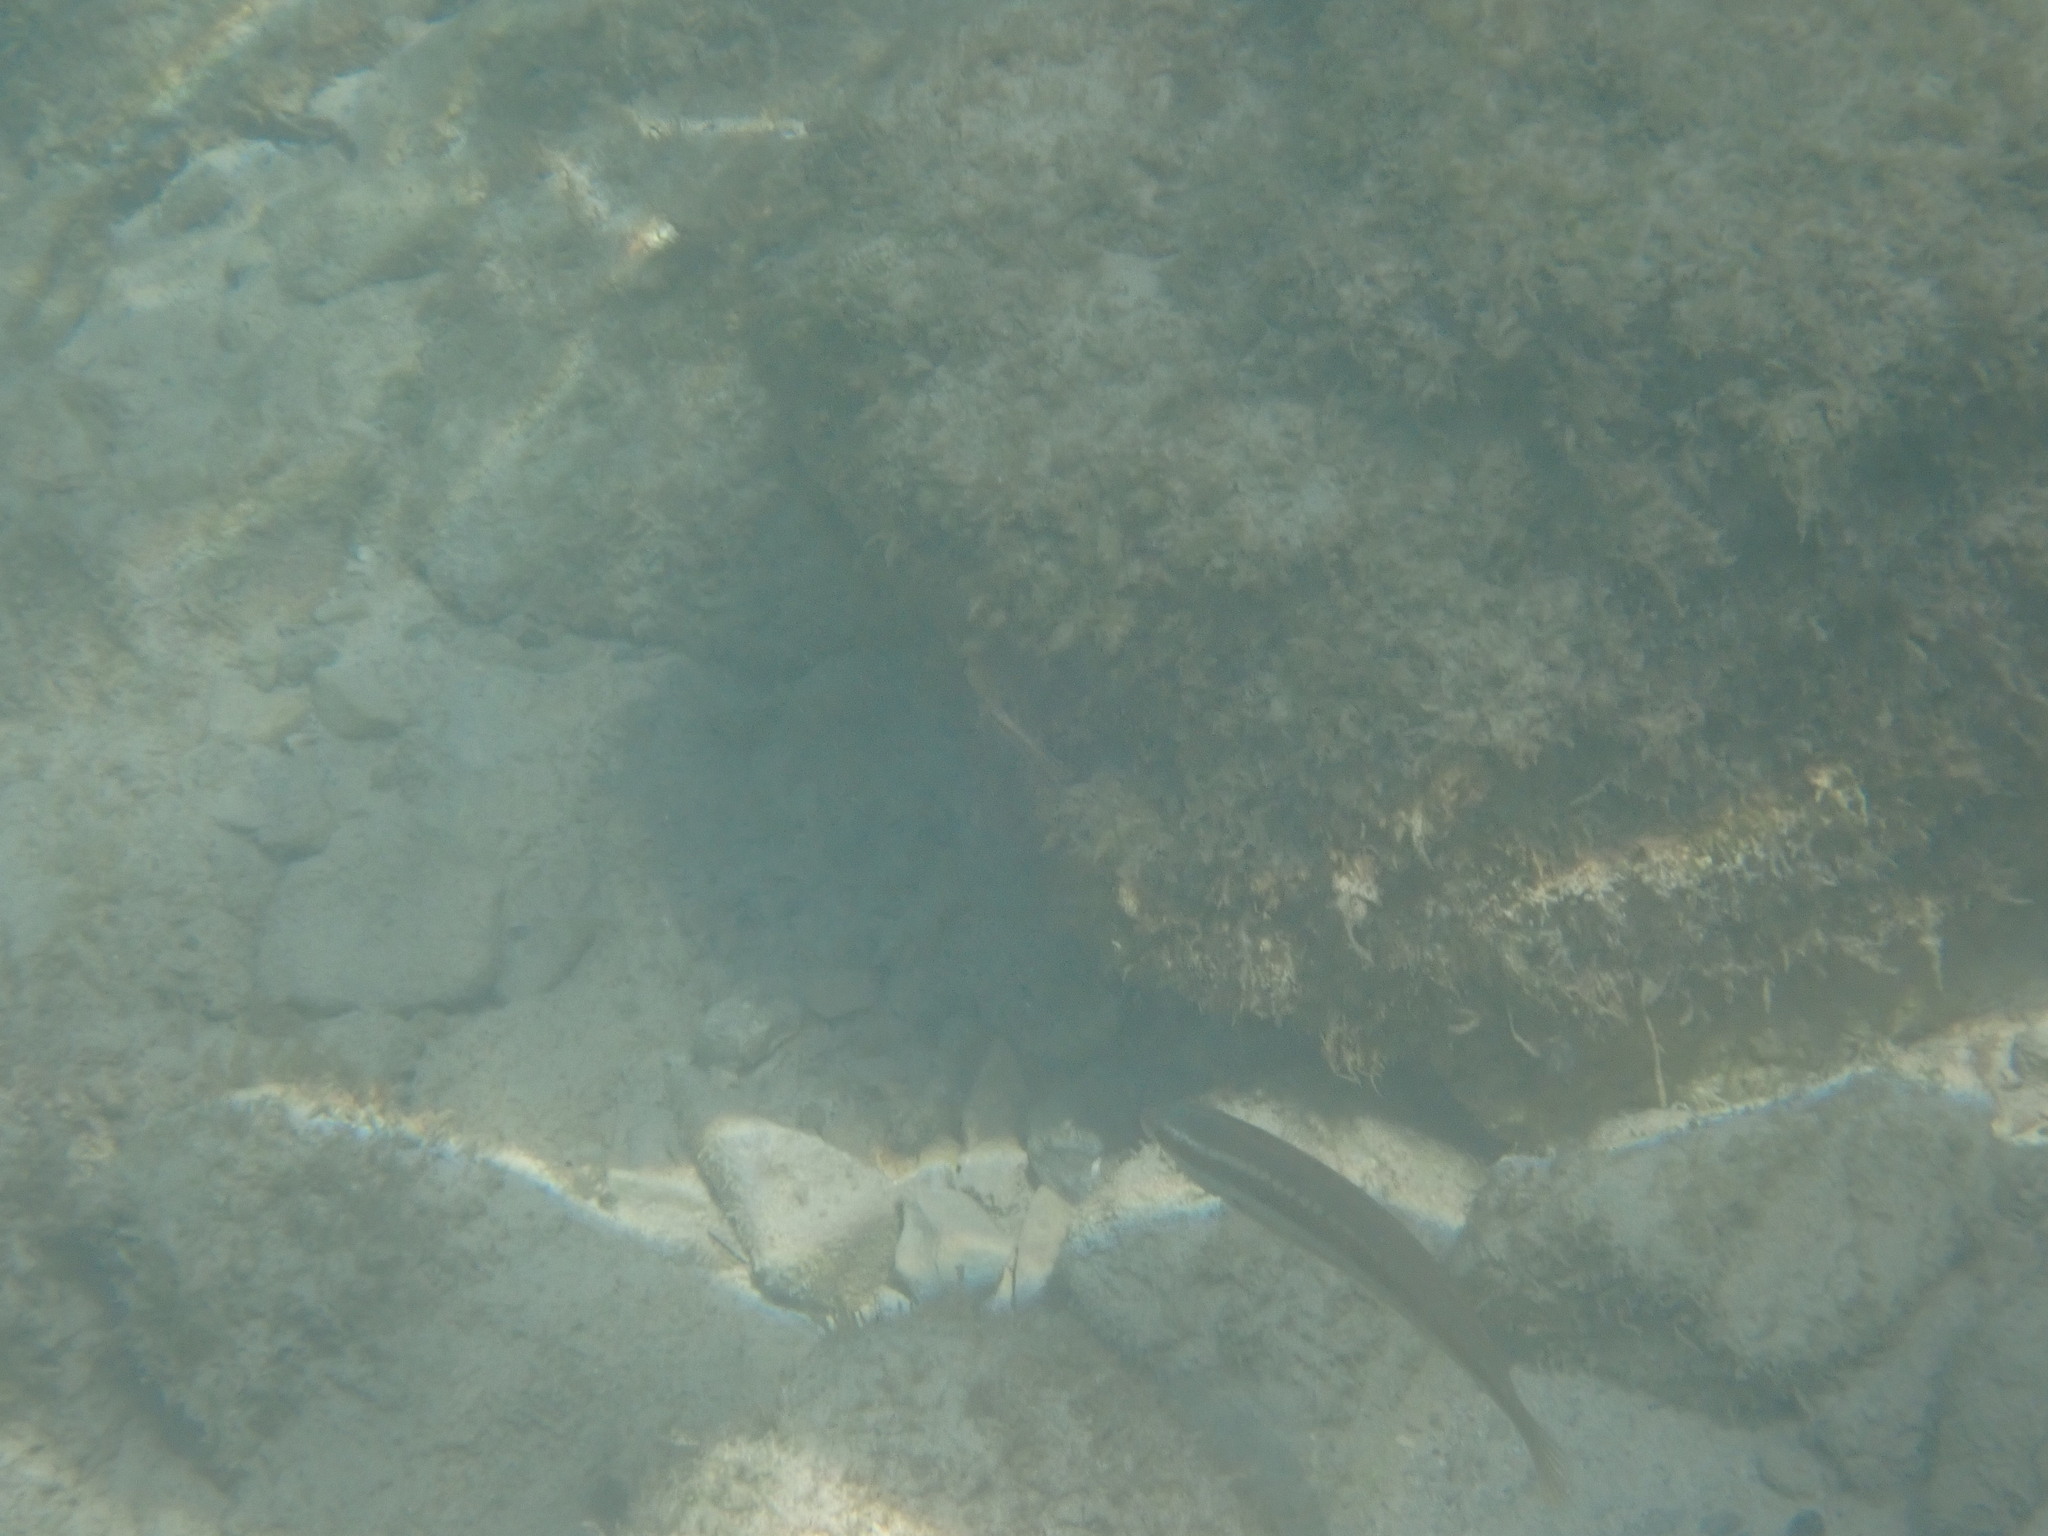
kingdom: Animalia
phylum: Chordata
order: Perciformes
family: Labridae
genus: Coris
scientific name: Coris julis
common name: Rainbow wrasse
